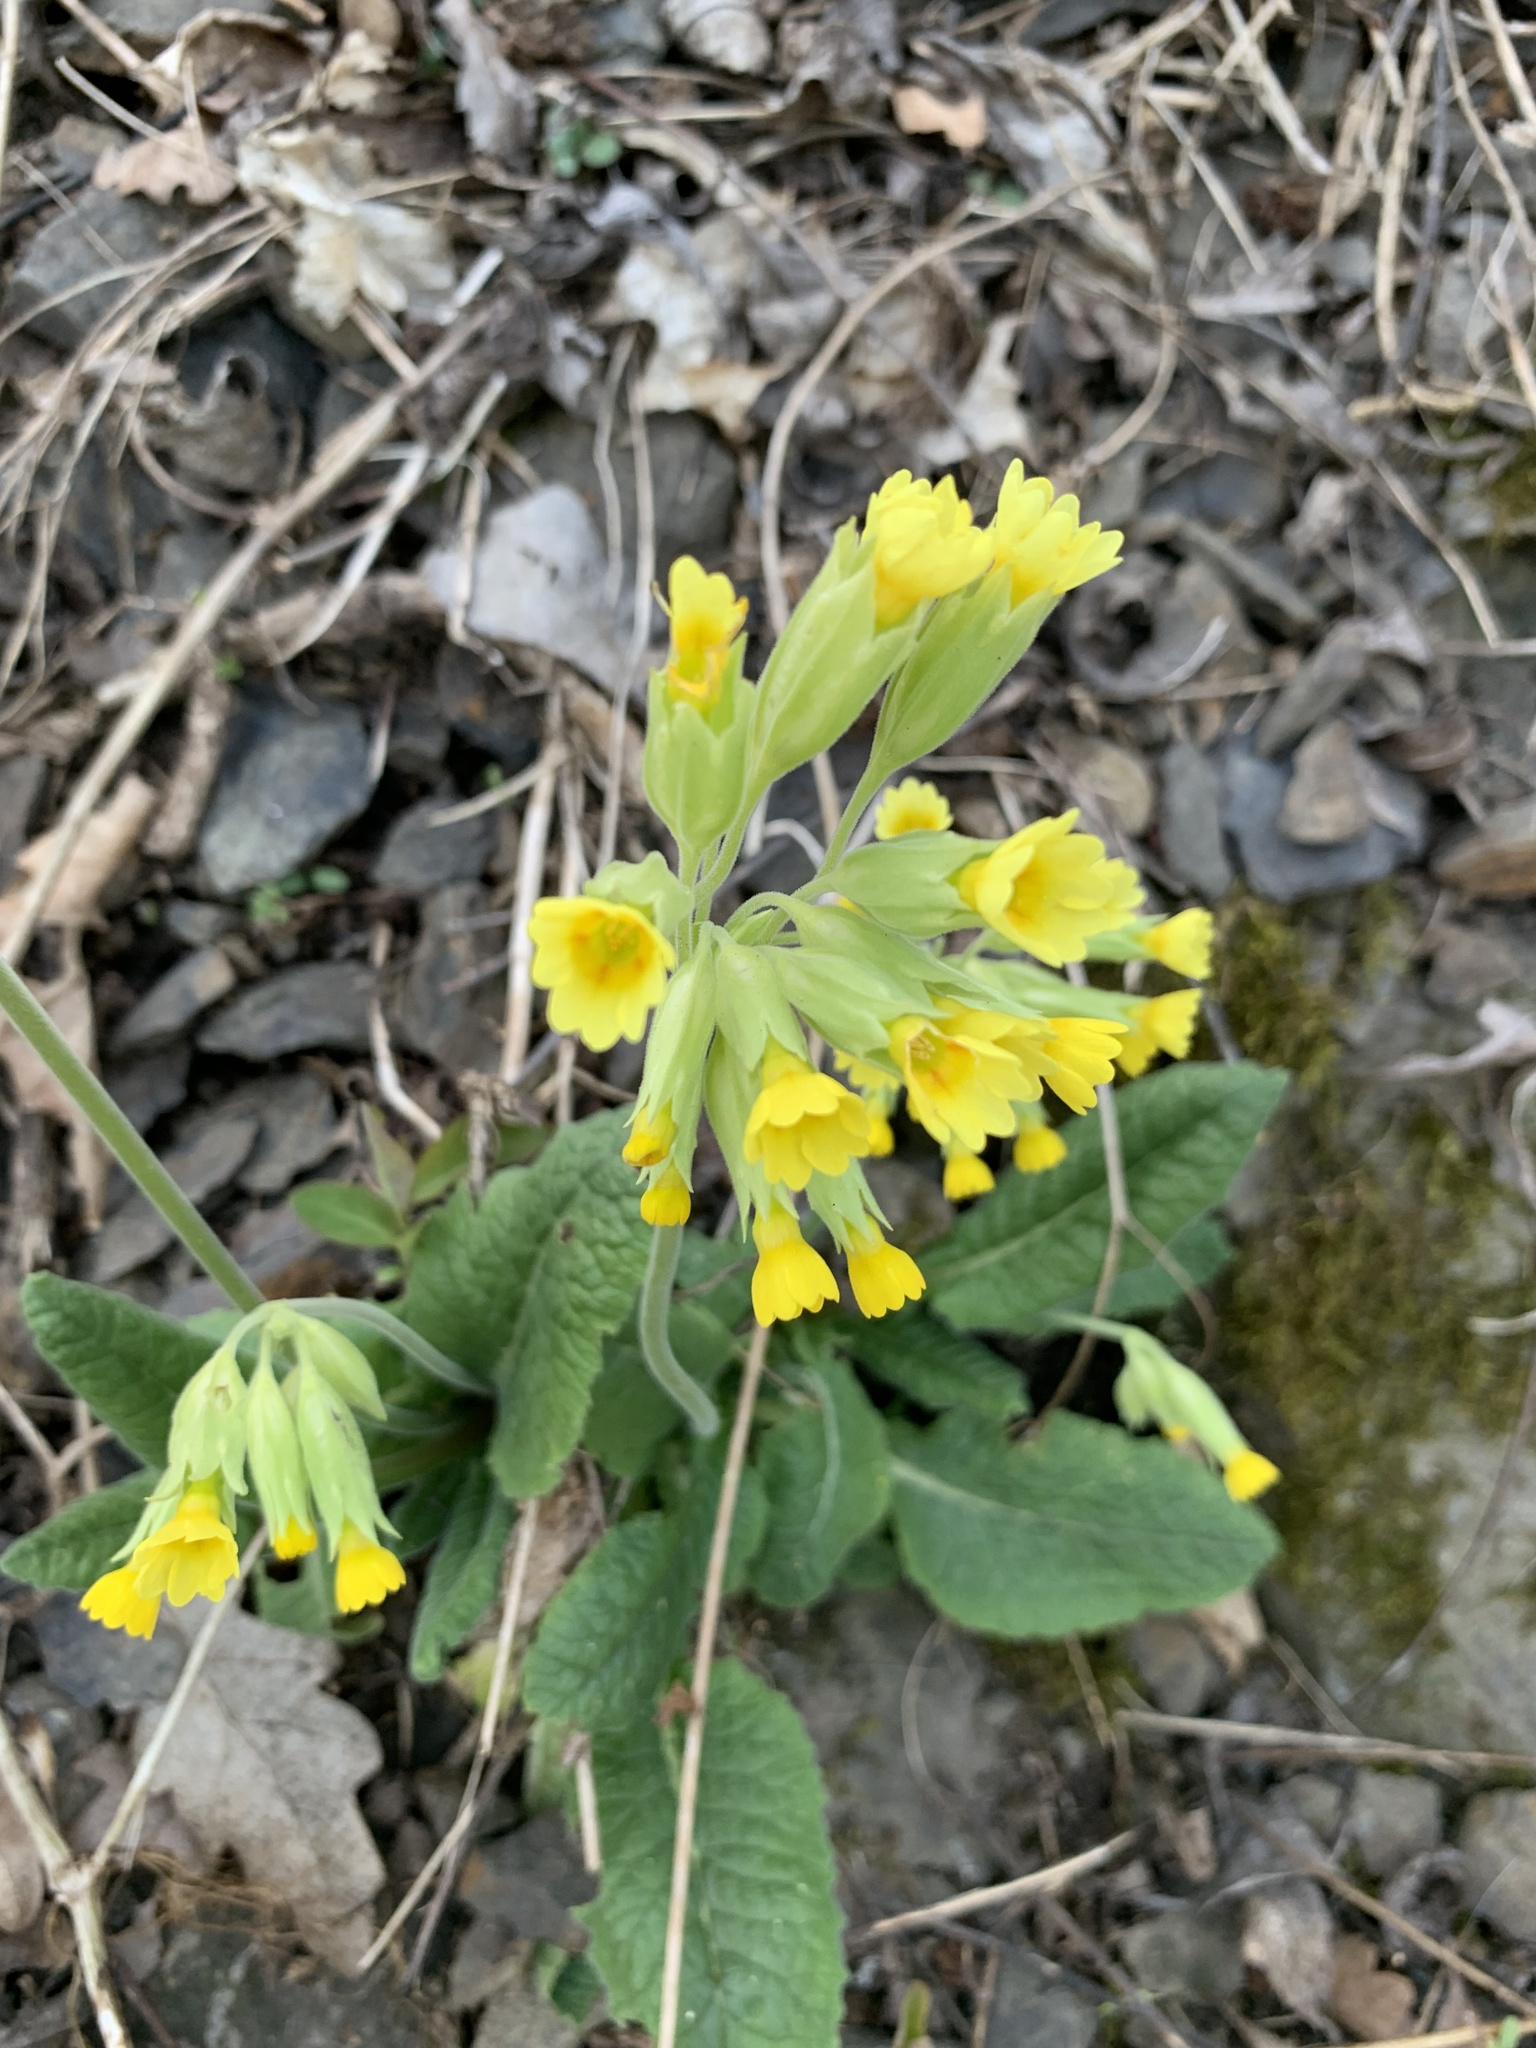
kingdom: Plantae
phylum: Tracheophyta
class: Magnoliopsida
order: Ericales
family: Primulaceae
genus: Primula
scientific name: Primula veris
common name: Cowslip
